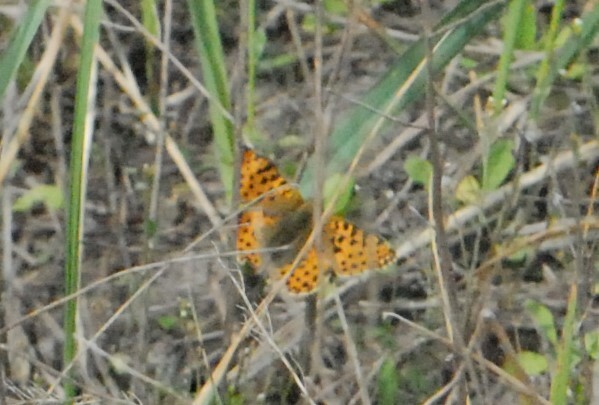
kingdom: Animalia
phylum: Arthropoda
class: Insecta
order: Lepidoptera
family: Nymphalidae
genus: Issoria
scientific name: Issoria lathonia
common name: Queen of spain fritillary
